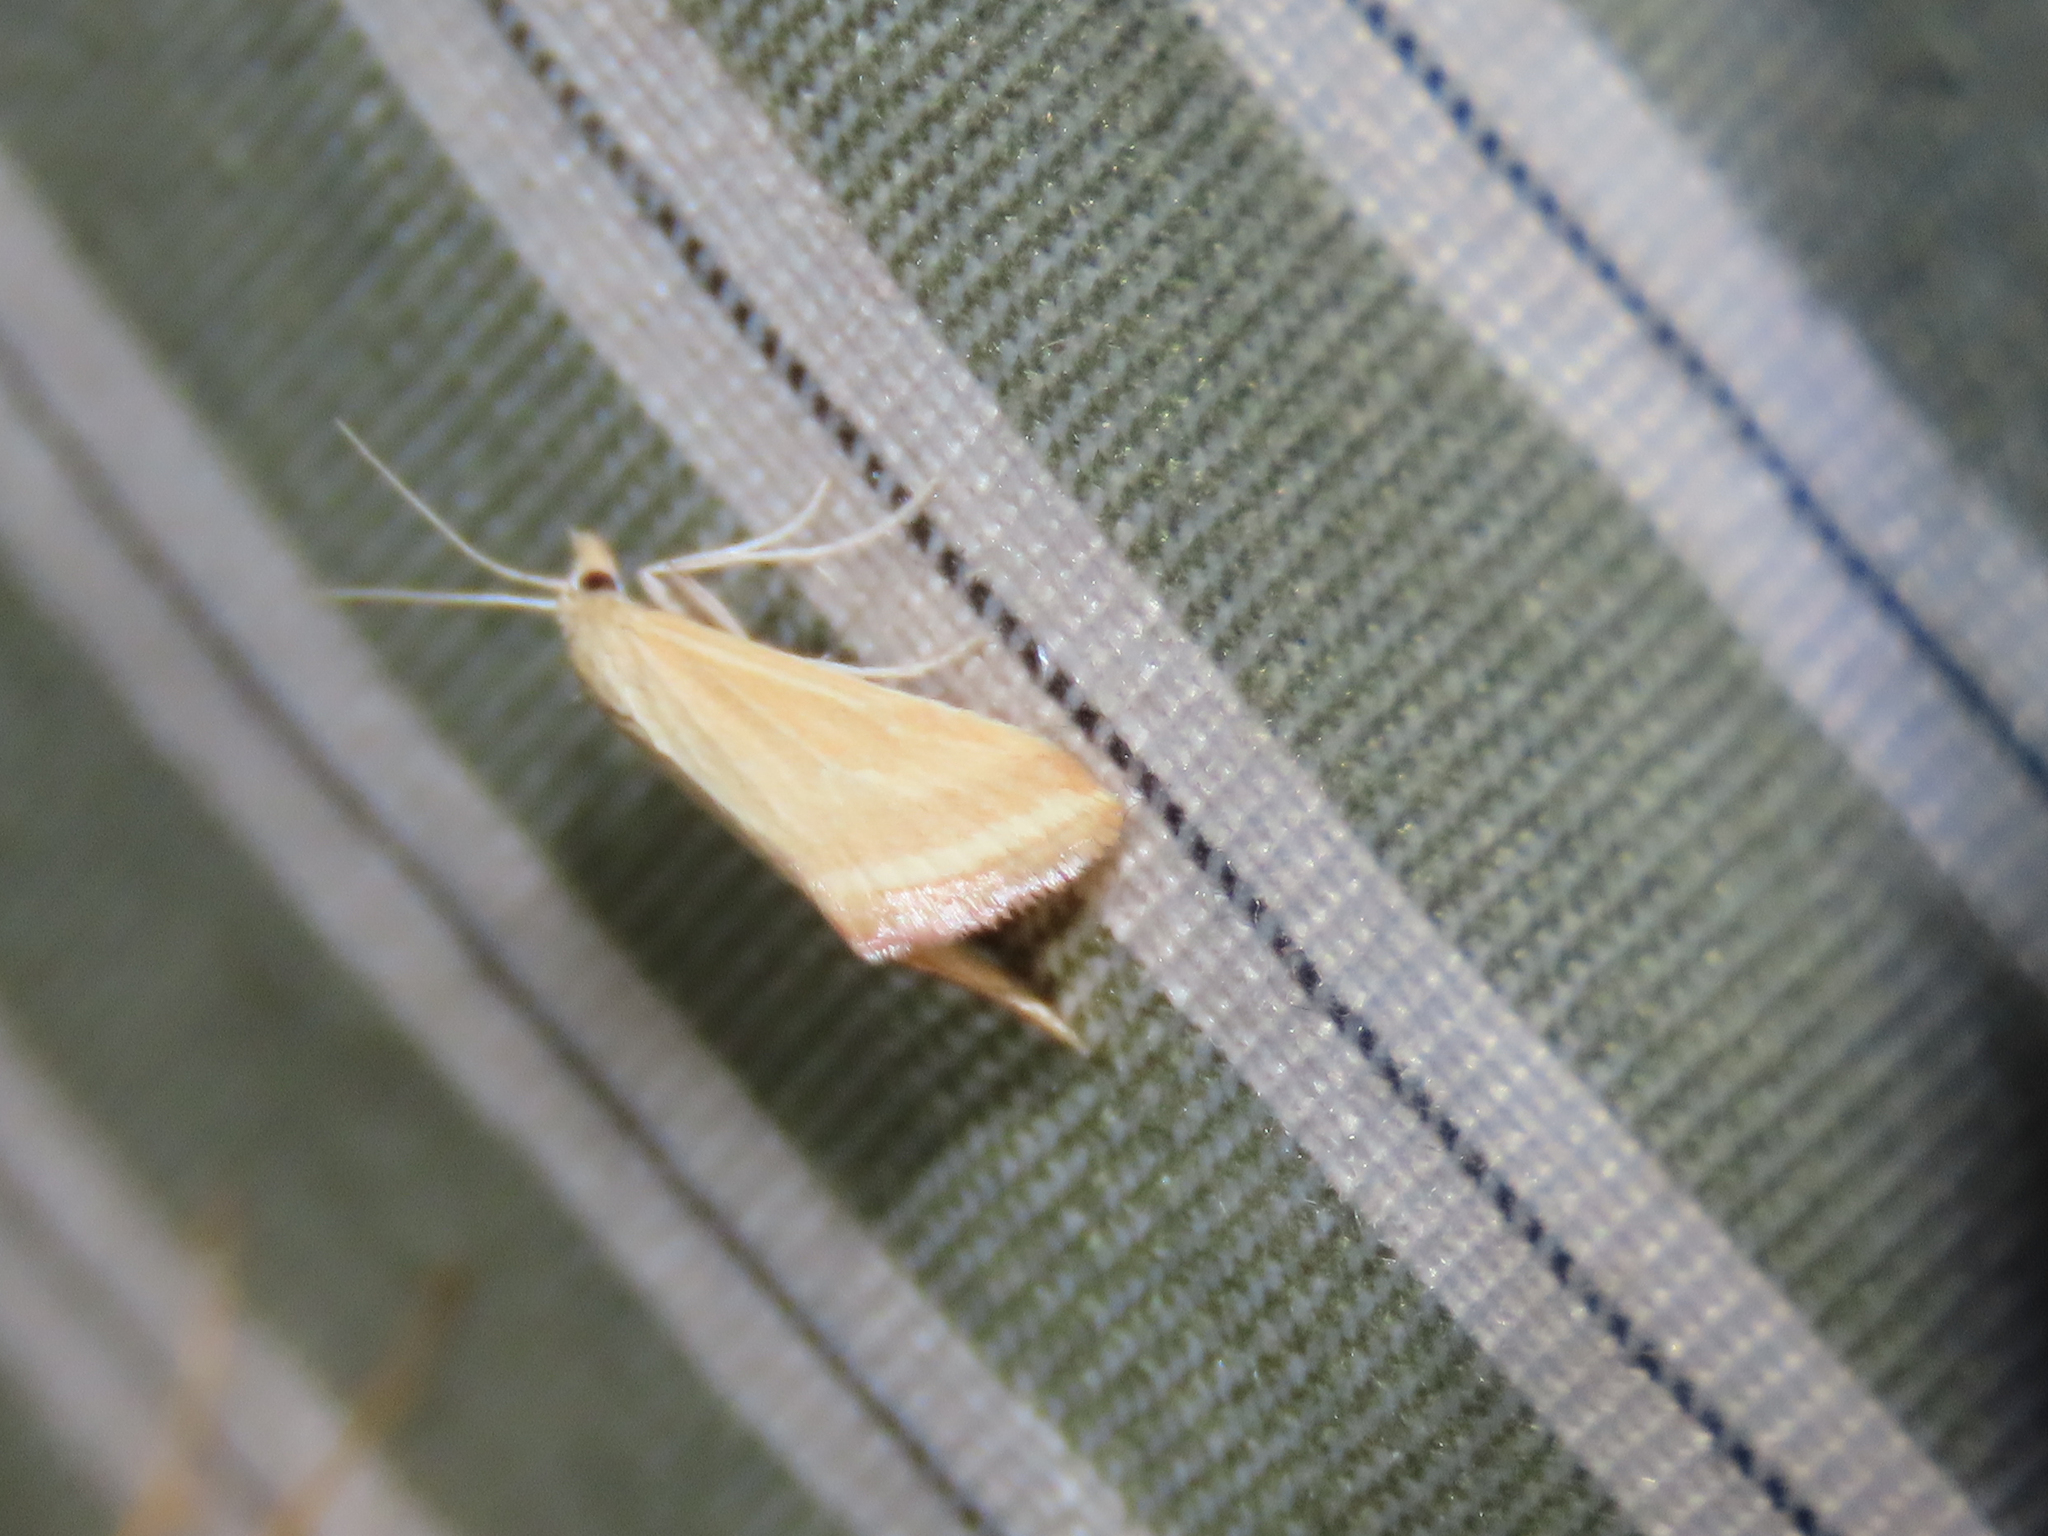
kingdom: Animalia
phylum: Arthropoda
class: Insecta
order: Lepidoptera
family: Crambidae
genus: Microtheoris
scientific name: Microtheoris ophionalis
